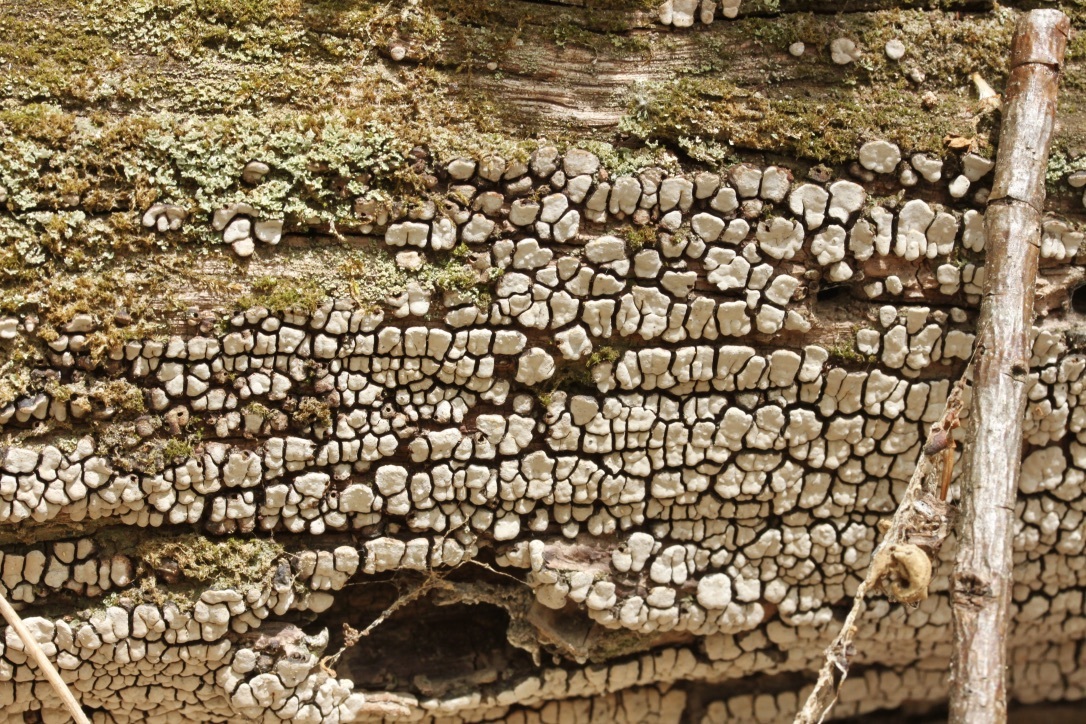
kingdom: Fungi
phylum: Basidiomycota
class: Agaricomycetes
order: Russulales
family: Stereaceae
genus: Xylobolus
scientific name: Xylobolus frustulatus
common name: Ceramic parchment
